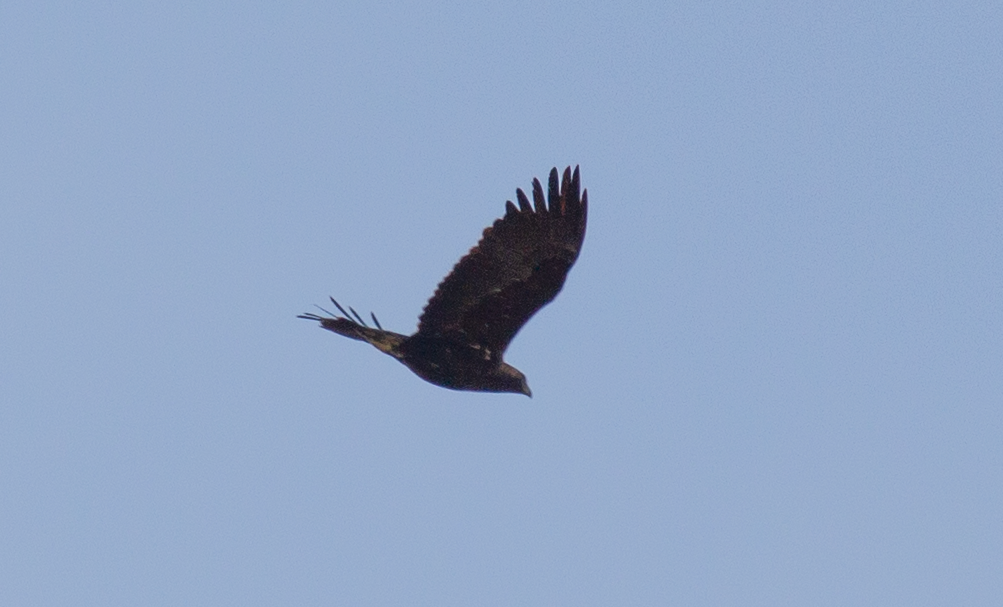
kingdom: Animalia
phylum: Chordata
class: Aves
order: Accipitriformes
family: Accipitridae
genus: Aquila
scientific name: Aquila heliaca
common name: Eastern imperial eagle
